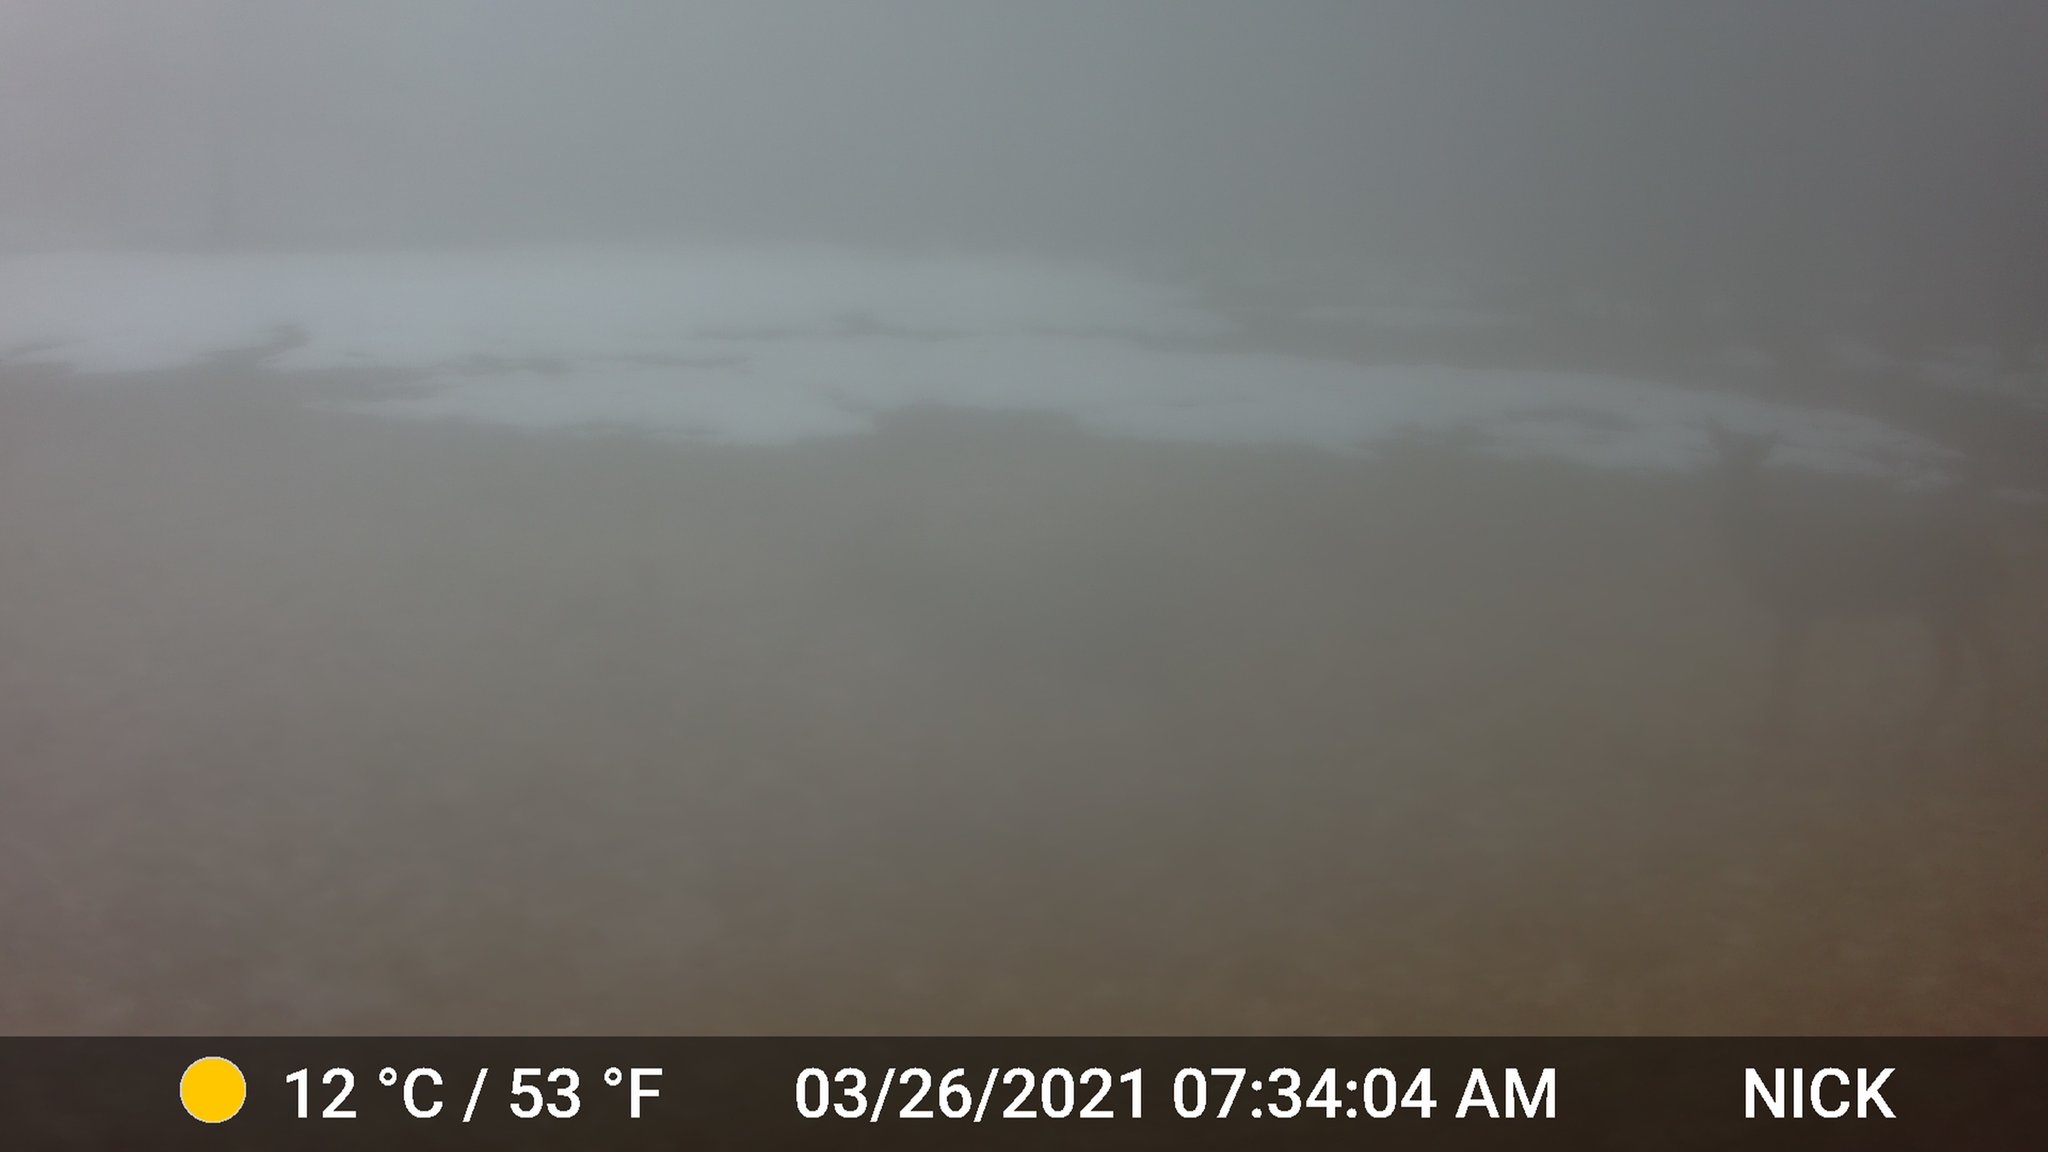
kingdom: Animalia
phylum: Chordata
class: Mammalia
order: Artiodactyla
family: Cervidae
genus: Odocoileus
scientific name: Odocoileus virginianus
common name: White-tailed deer
